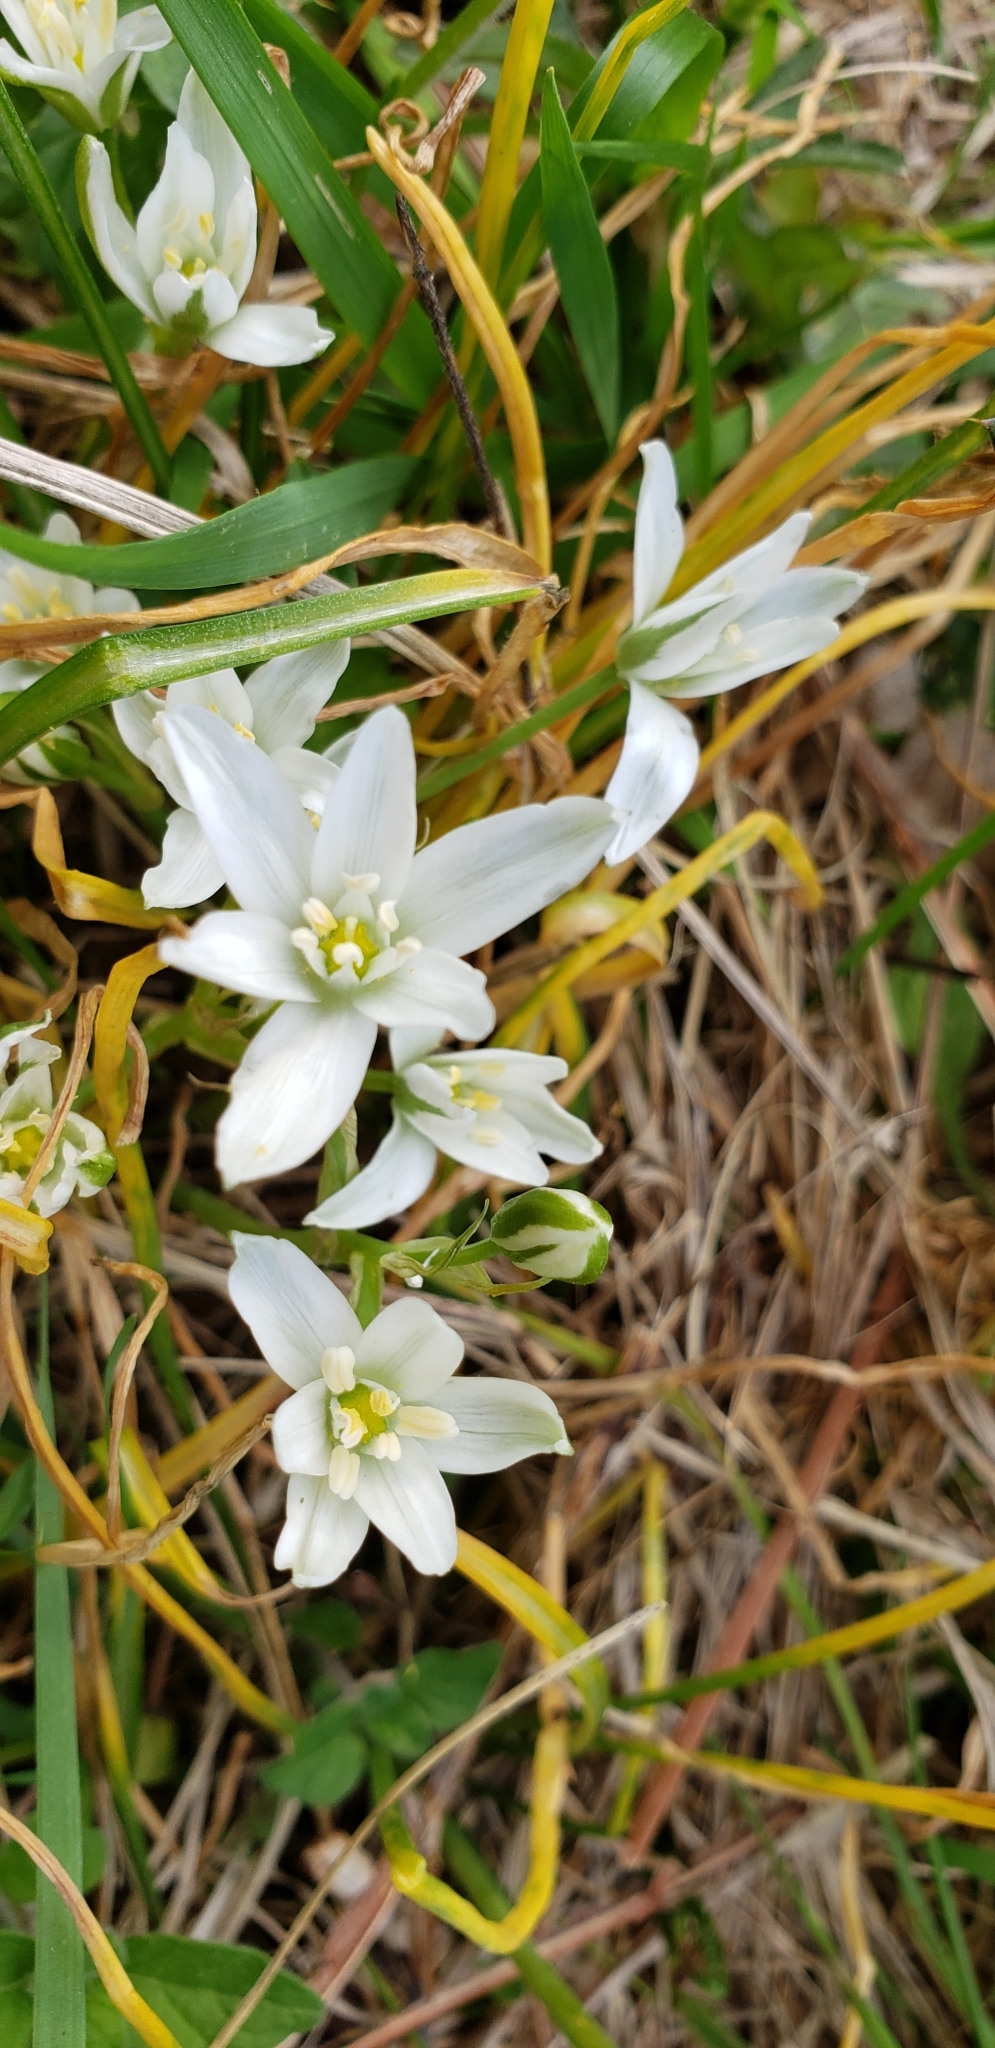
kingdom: Plantae
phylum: Tracheophyta
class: Liliopsida
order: Asparagales
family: Asparagaceae
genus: Ornithogalum
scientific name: Ornithogalum umbellatum
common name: Garden star-of-bethlehem
